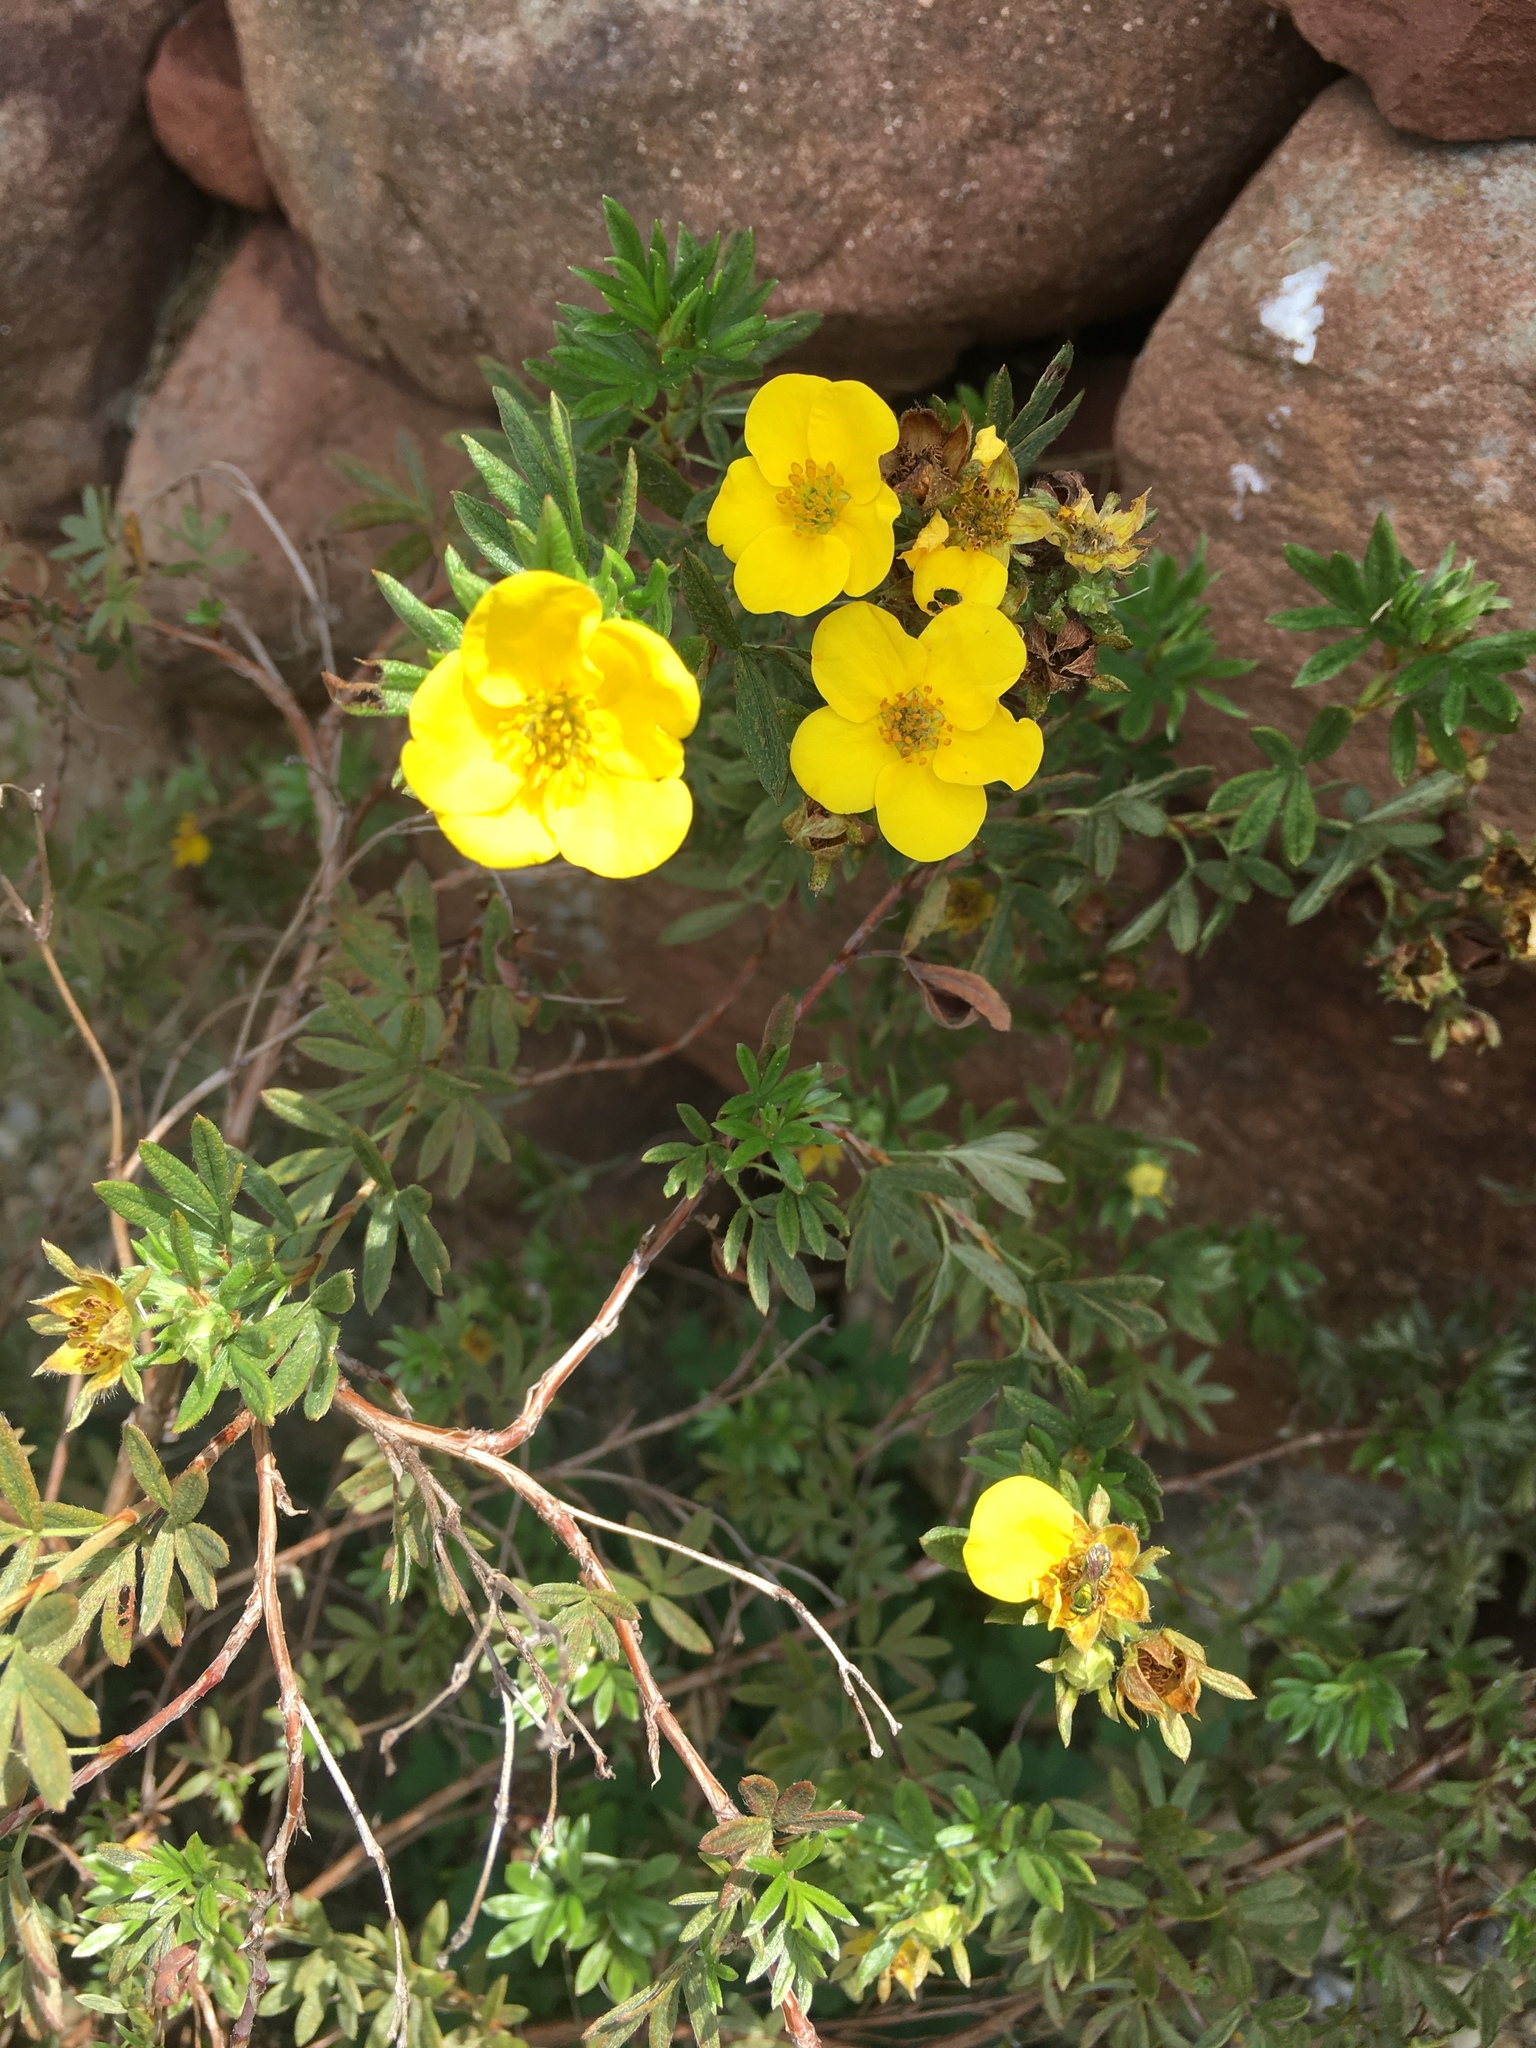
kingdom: Plantae
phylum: Tracheophyta
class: Magnoliopsida
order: Rosales
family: Rosaceae
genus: Dasiphora
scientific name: Dasiphora fruticosa
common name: Shrubby cinquefoil
